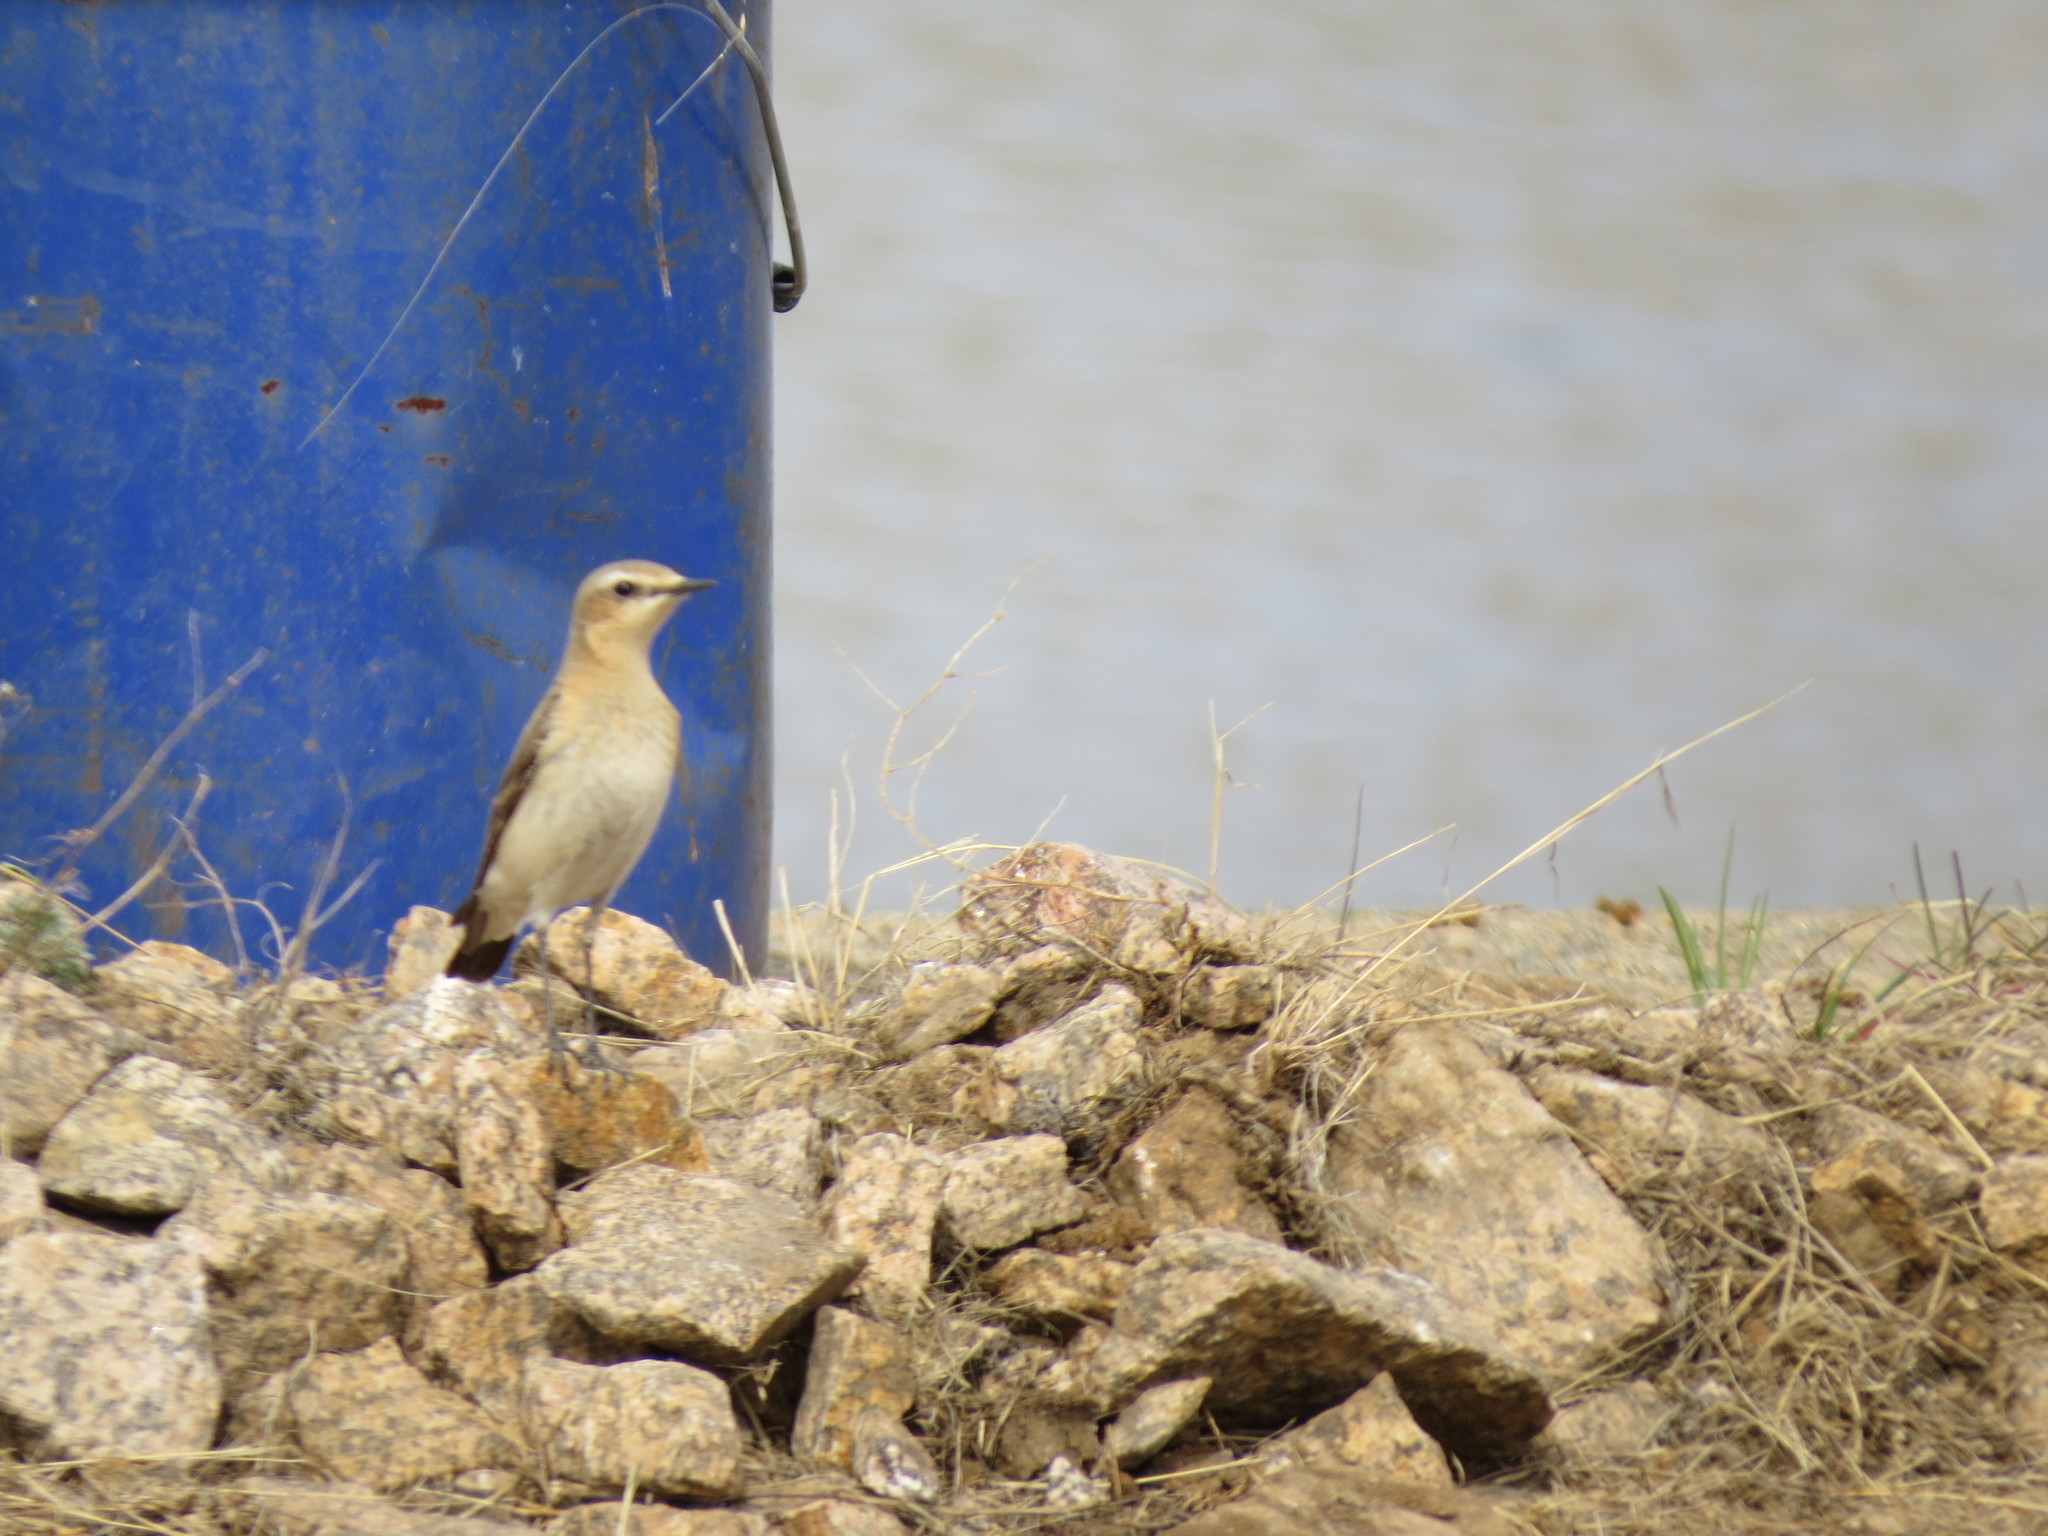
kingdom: Animalia
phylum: Chordata
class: Aves
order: Passeriformes
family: Muscicapidae
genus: Oenanthe
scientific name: Oenanthe oenanthe
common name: Northern wheatear
